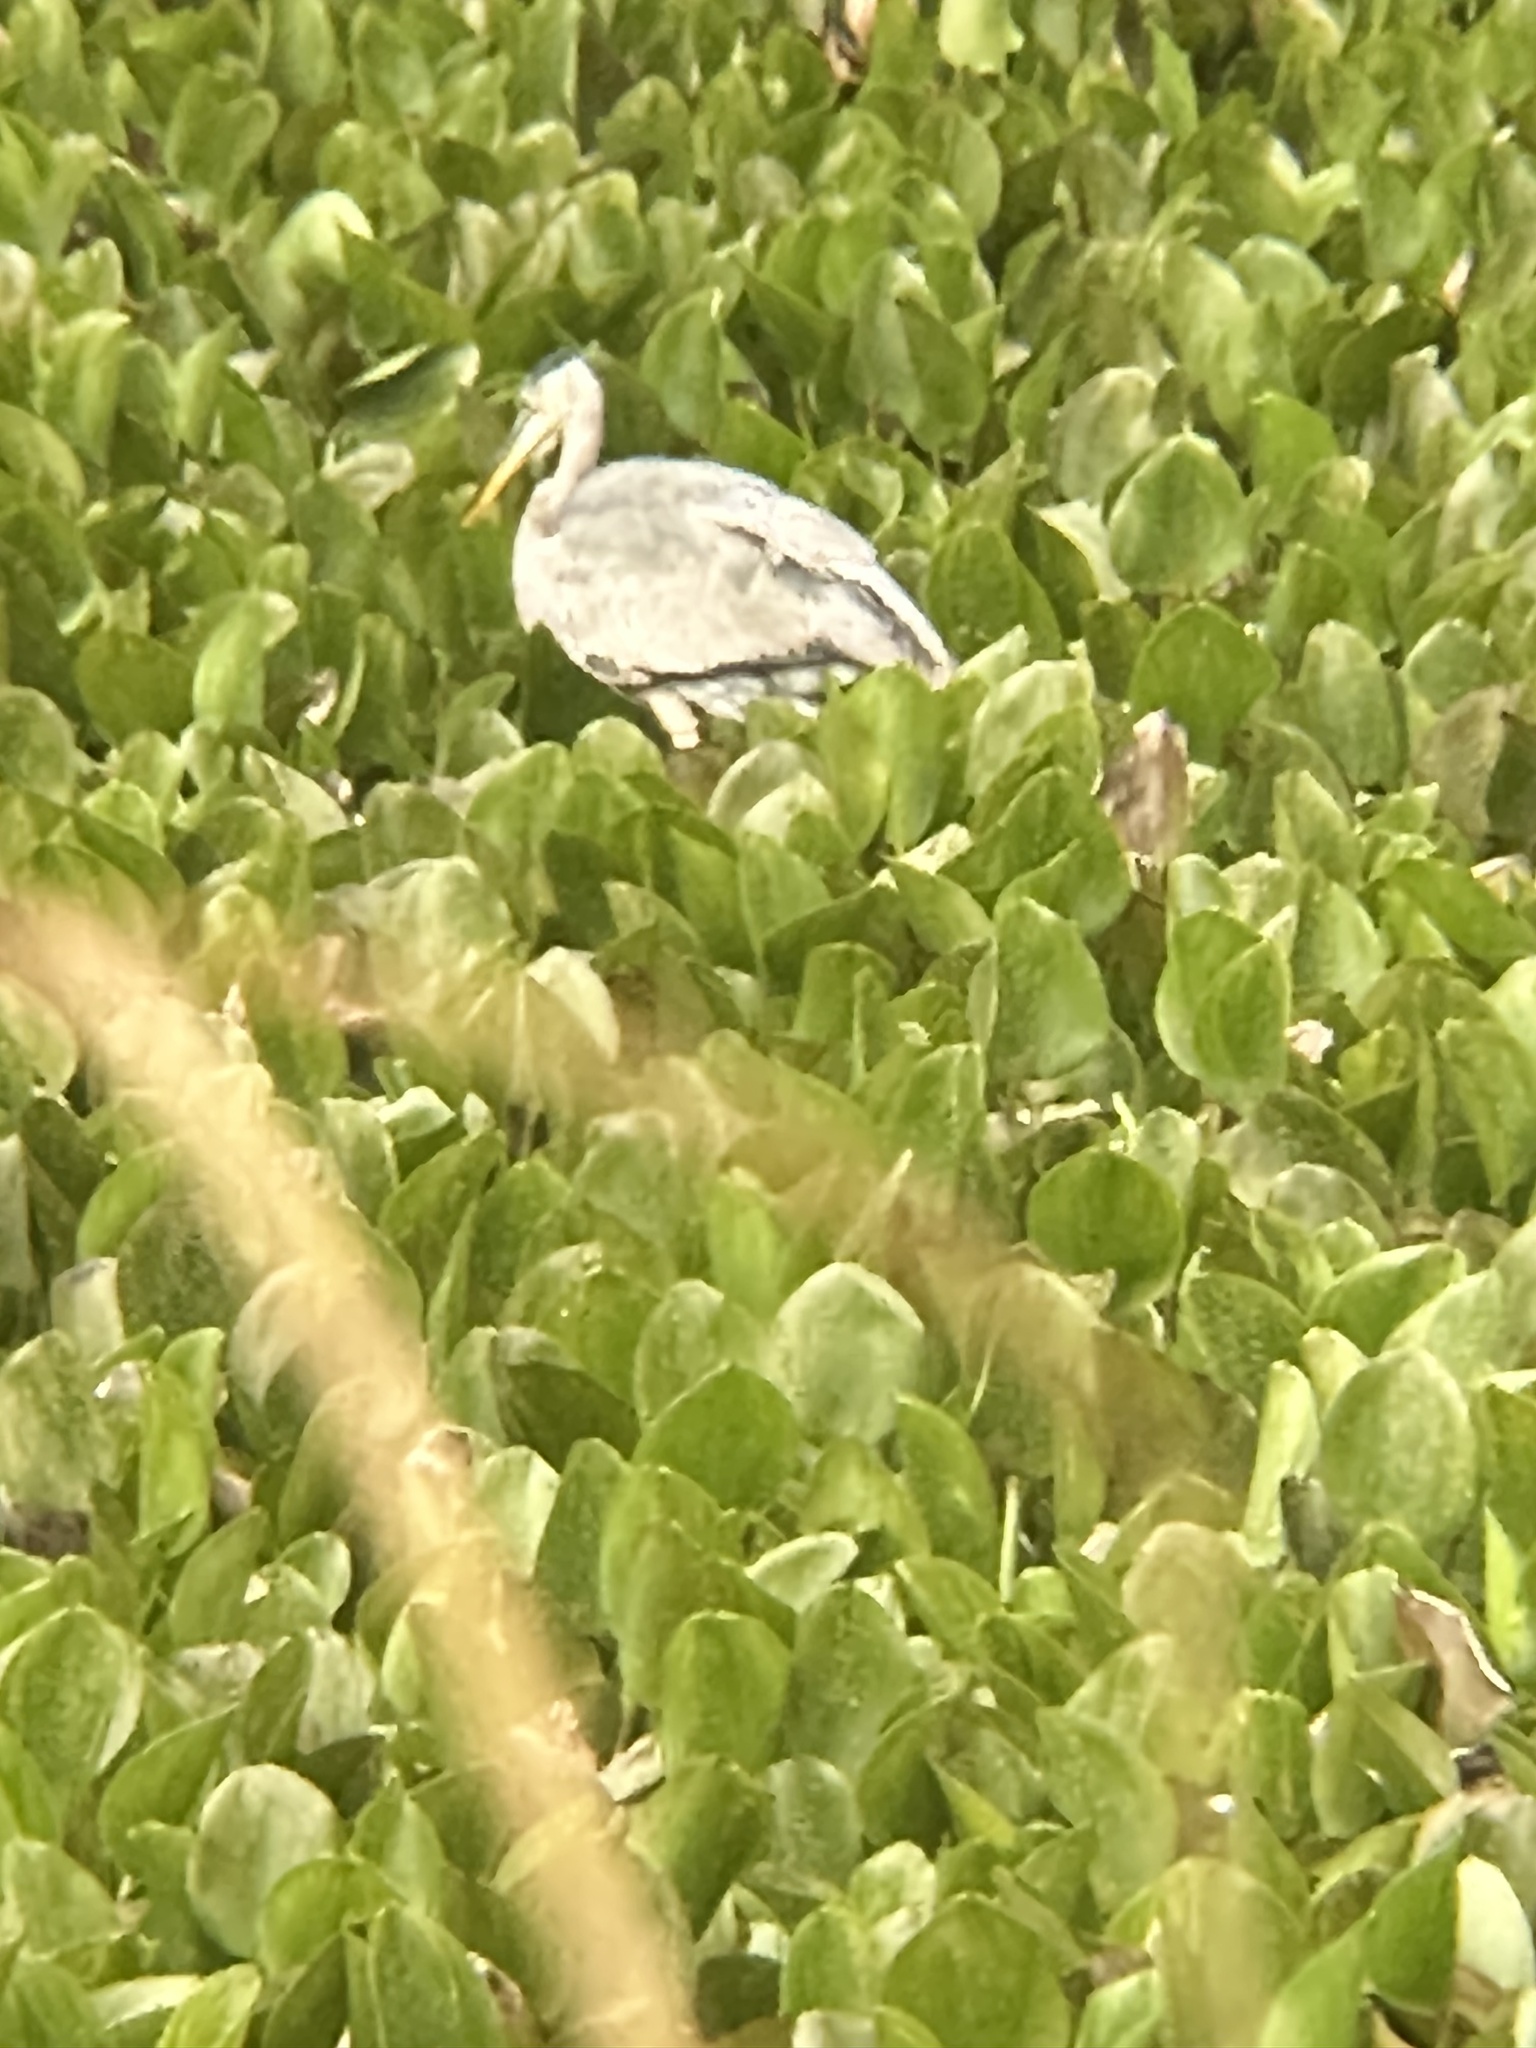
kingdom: Animalia
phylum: Chordata
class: Aves
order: Pelecaniformes
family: Ardeidae
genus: Ardea
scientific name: Ardea herodias
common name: Great blue heron
